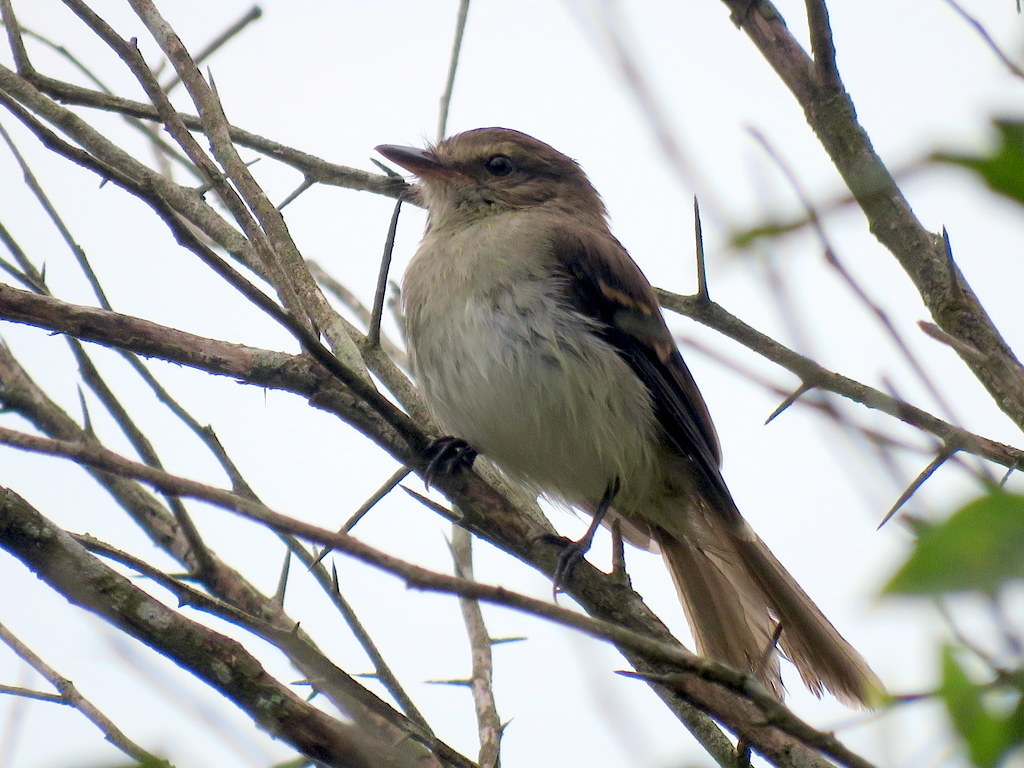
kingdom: Animalia
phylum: Chordata
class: Aves
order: Passeriformes
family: Tyrannidae
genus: Cnemotriccus
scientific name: Cnemotriccus fuscatus
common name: Fuscous flycatcher
